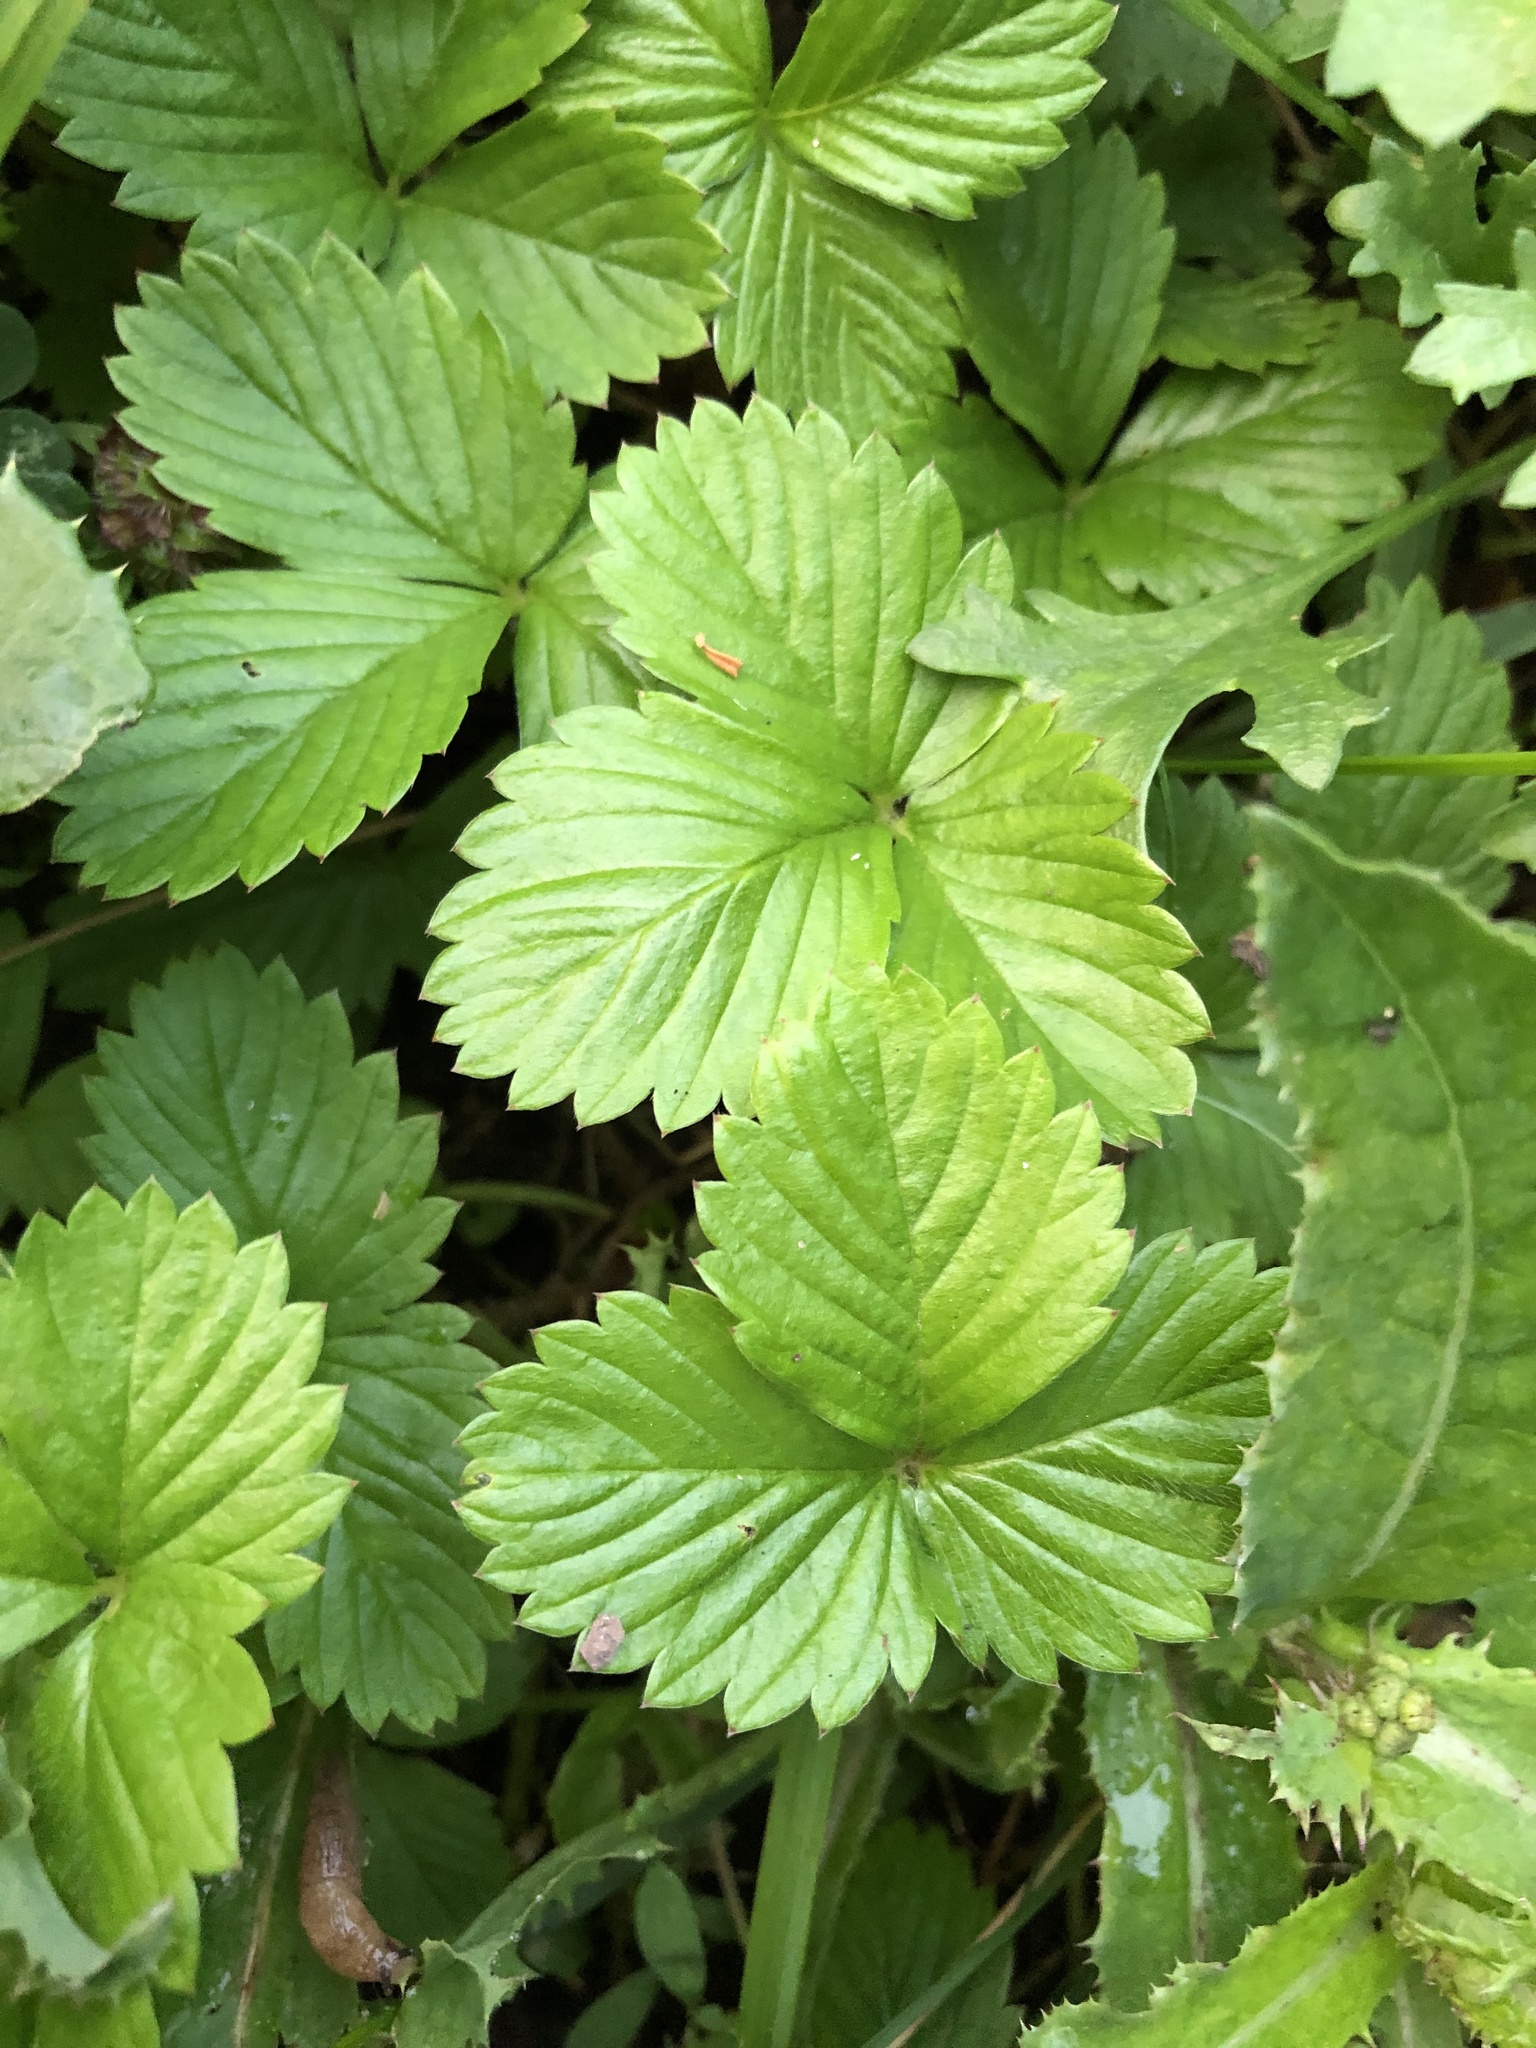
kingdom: Plantae
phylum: Tracheophyta
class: Magnoliopsida
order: Rosales
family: Rosaceae
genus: Fragaria
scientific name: Fragaria vesca
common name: Wild strawberry
